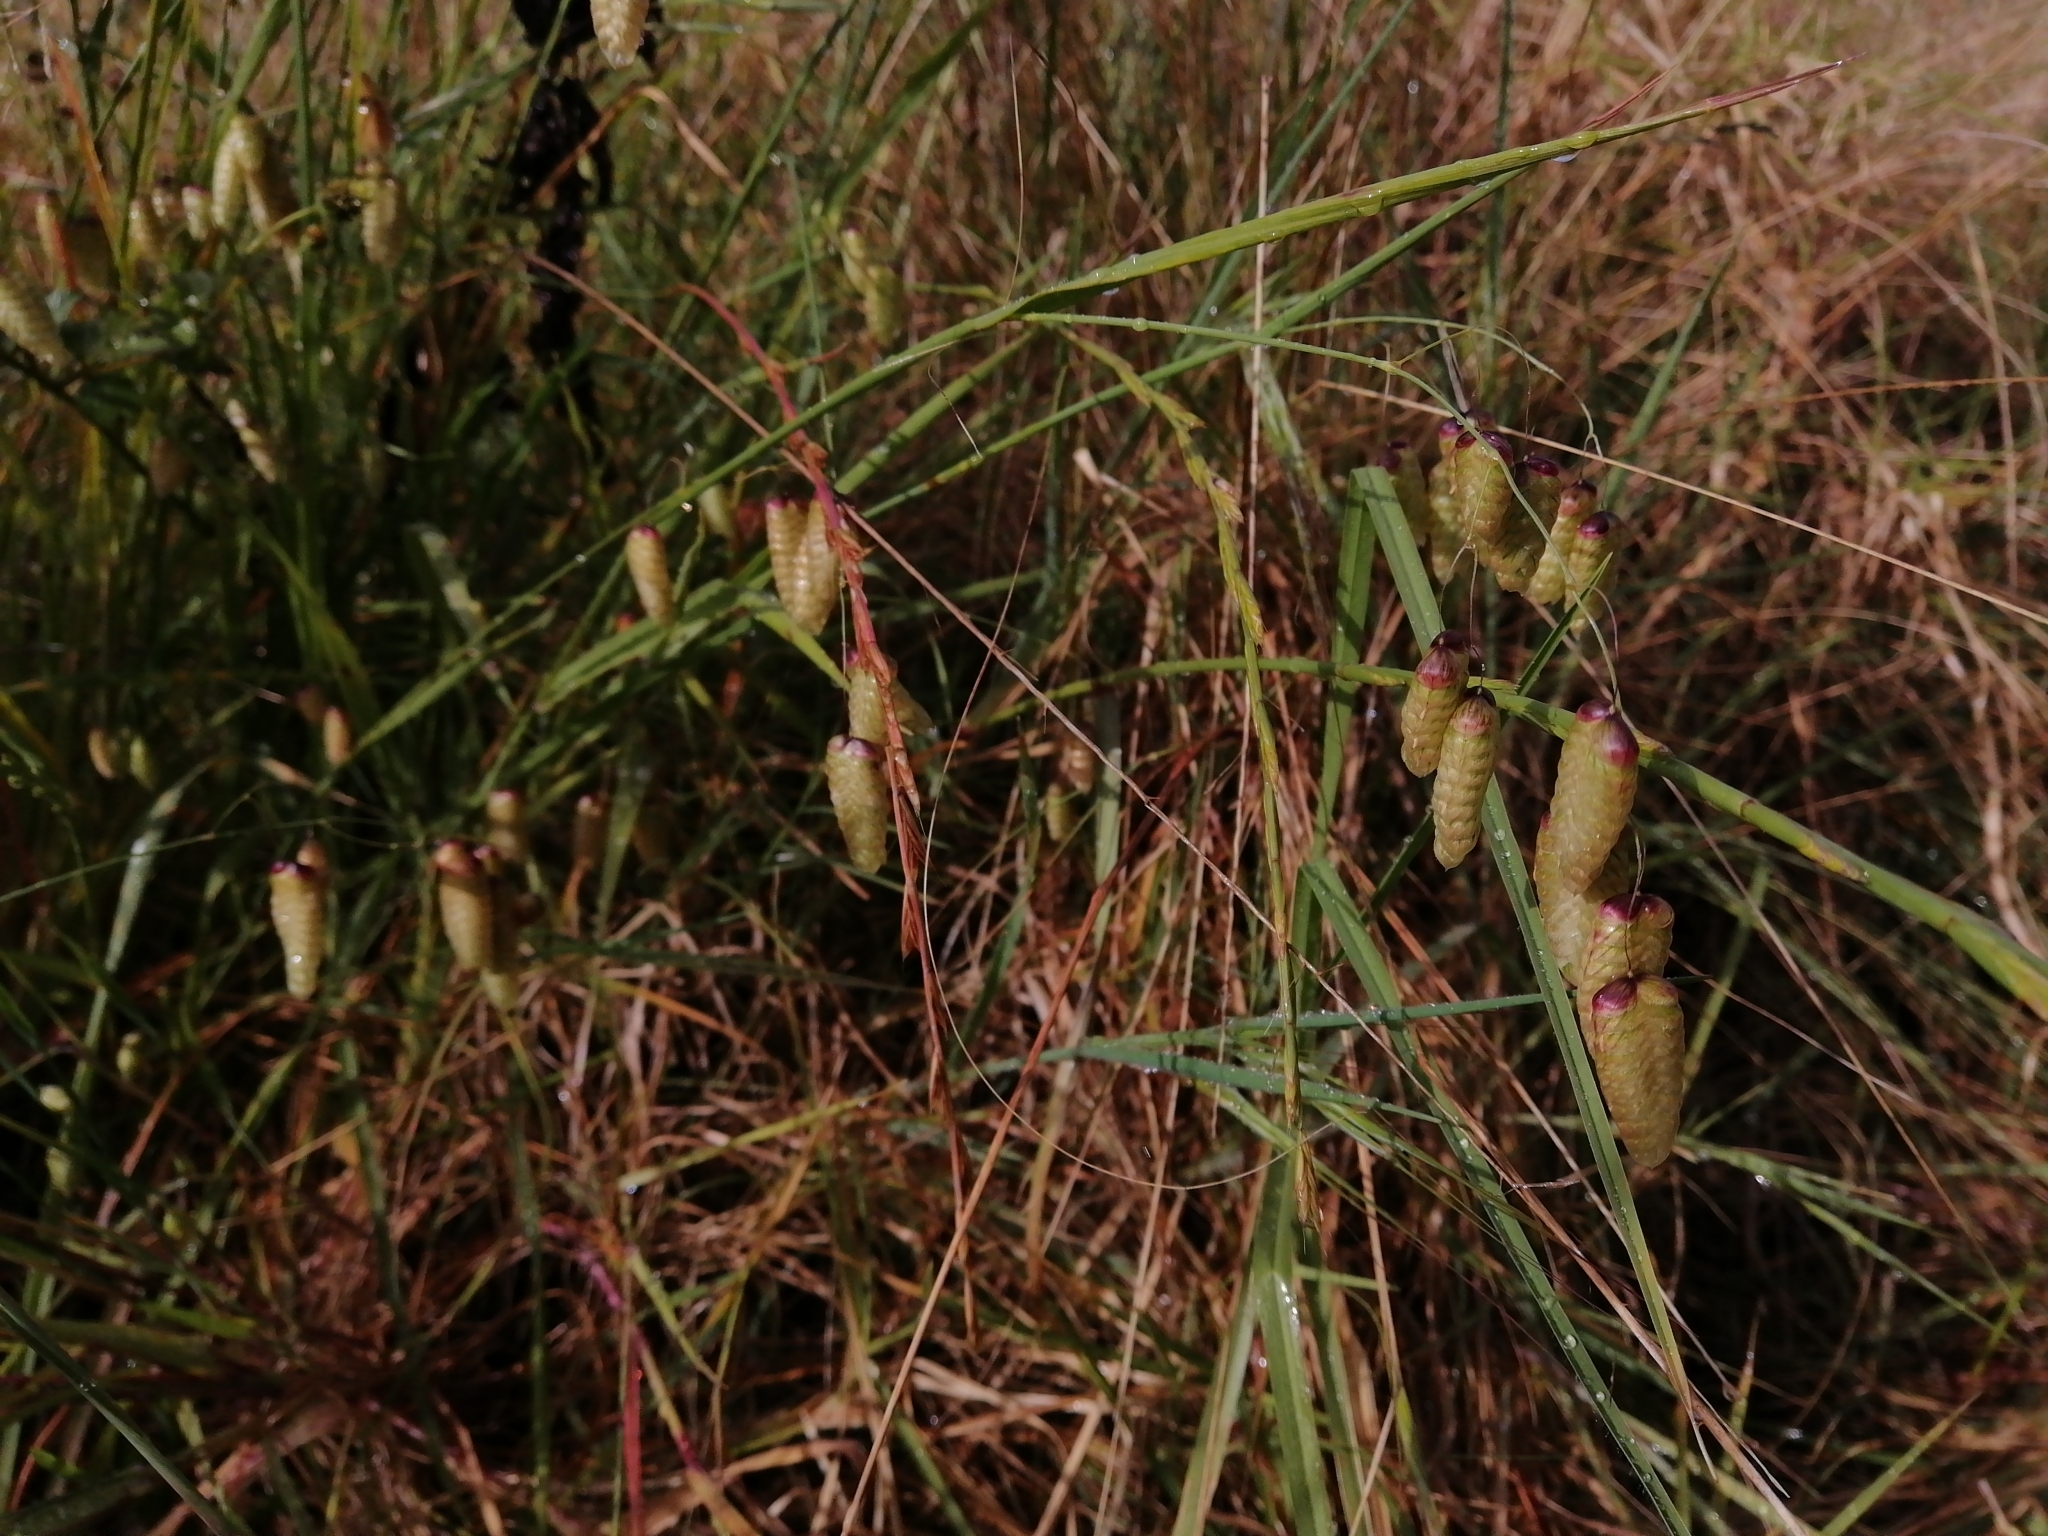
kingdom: Plantae
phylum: Tracheophyta
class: Liliopsida
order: Poales
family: Poaceae
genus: Briza
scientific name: Briza maxima
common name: Big quakinggrass
